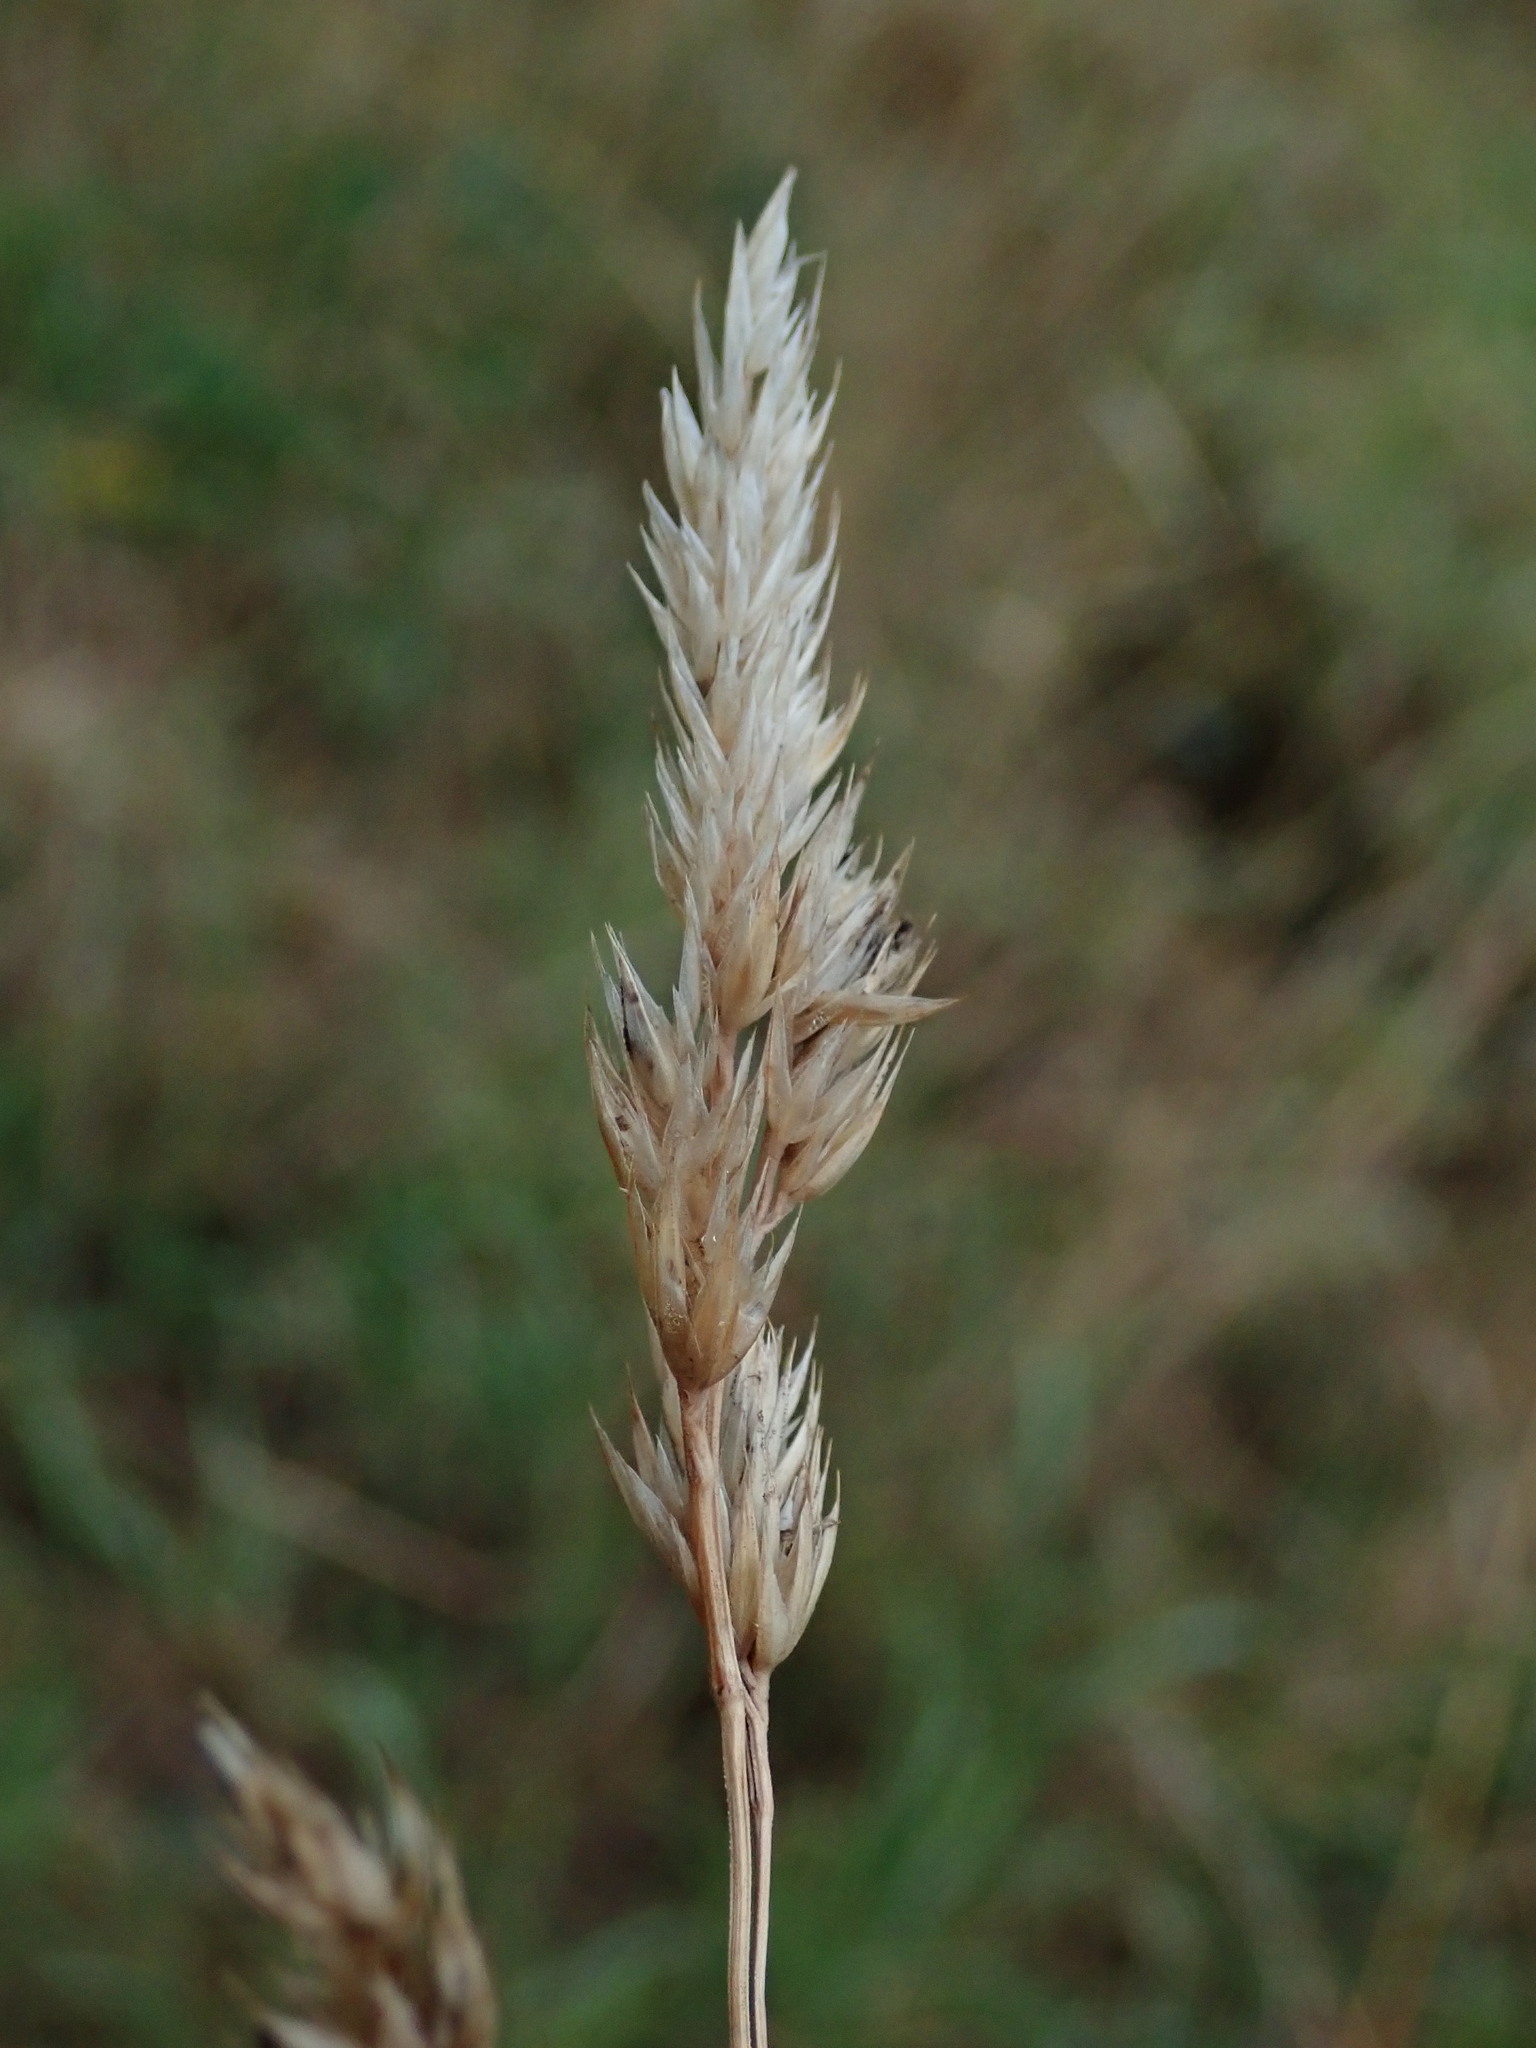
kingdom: Plantae
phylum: Tracheophyta
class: Liliopsida
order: Poales
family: Poaceae
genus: Dactylis
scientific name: Dactylis glomerata
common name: Orchardgrass
